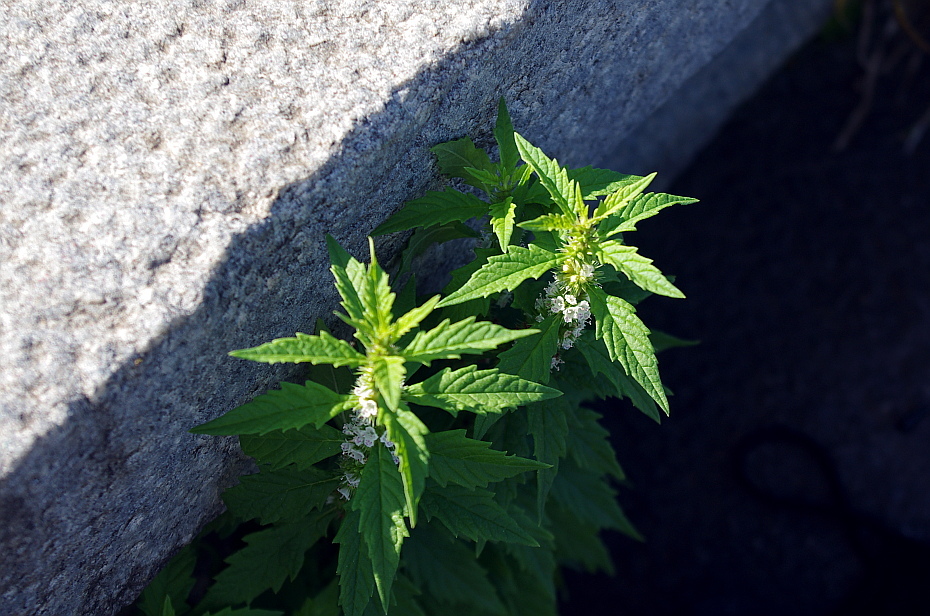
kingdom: Plantae
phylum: Tracheophyta
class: Magnoliopsida
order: Lamiales
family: Lamiaceae
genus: Lycopus
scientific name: Lycopus europaeus
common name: European bugleweed
